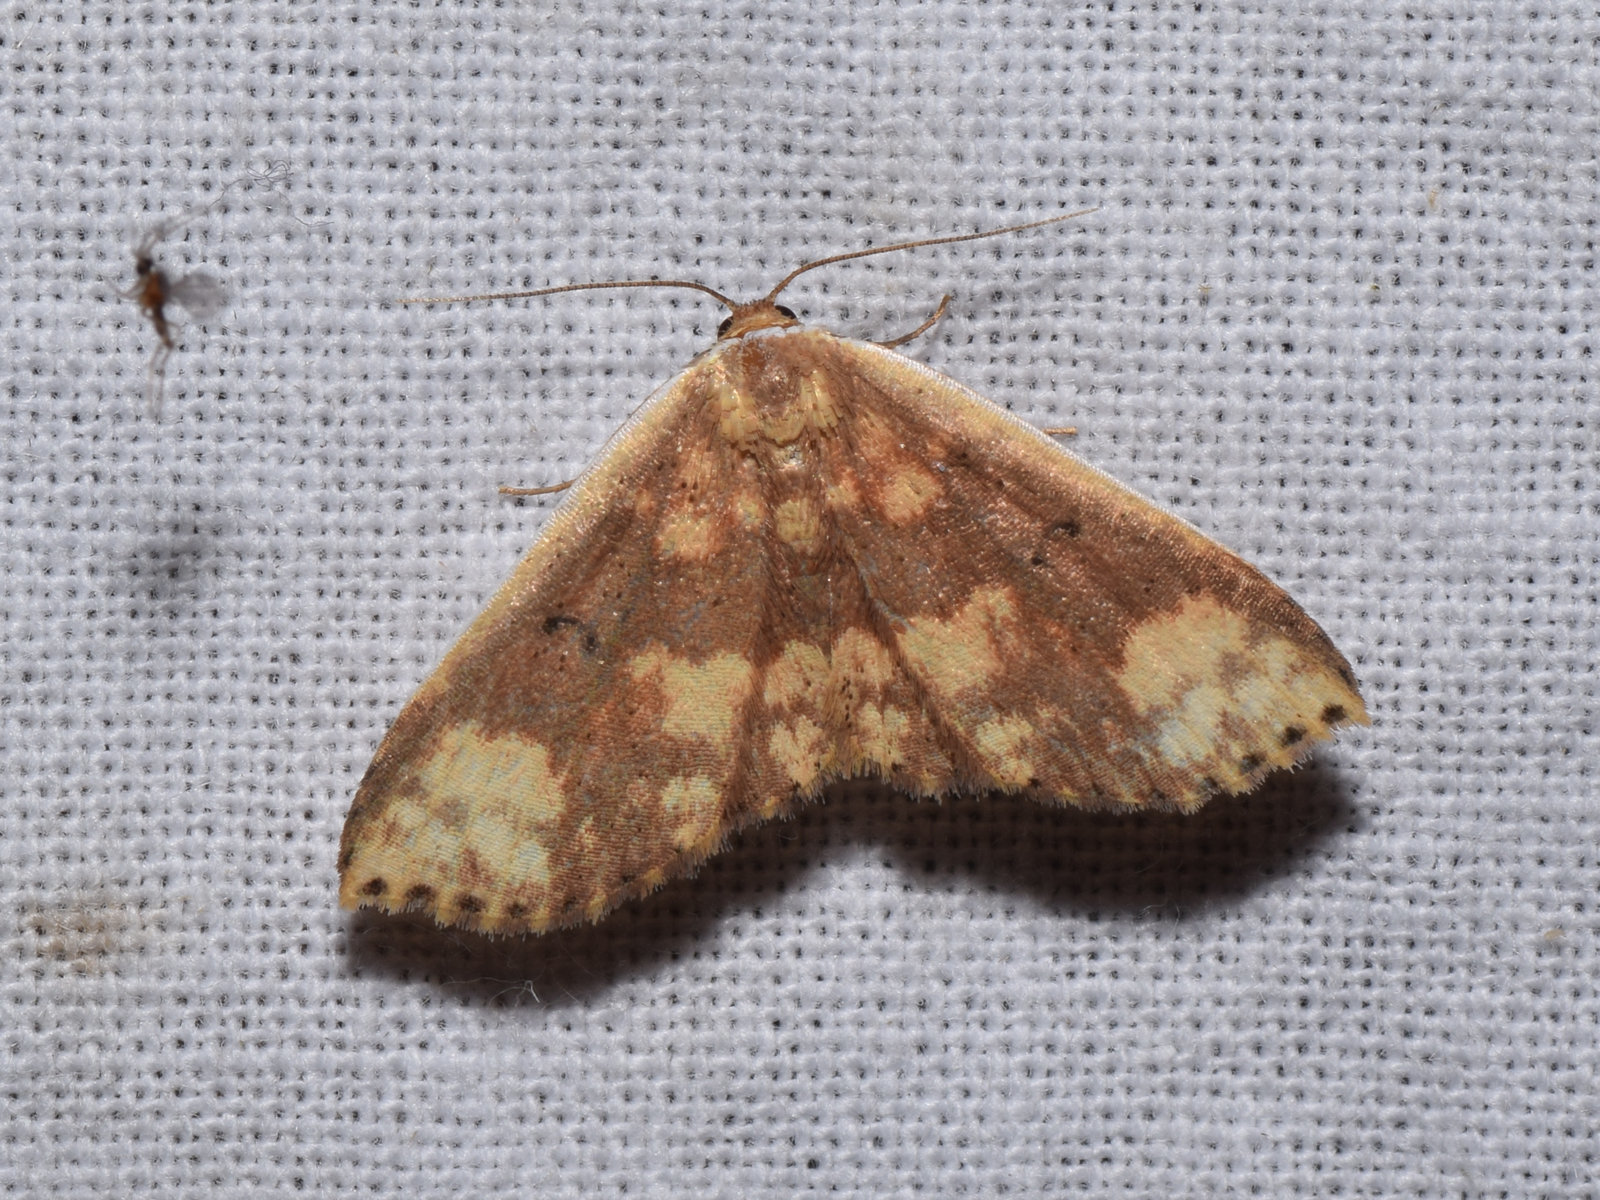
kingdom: Animalia
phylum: Arthropoda
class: Insecta
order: Lepidoptera
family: Noctuidae
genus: Arasada
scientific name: Arasada ornata
